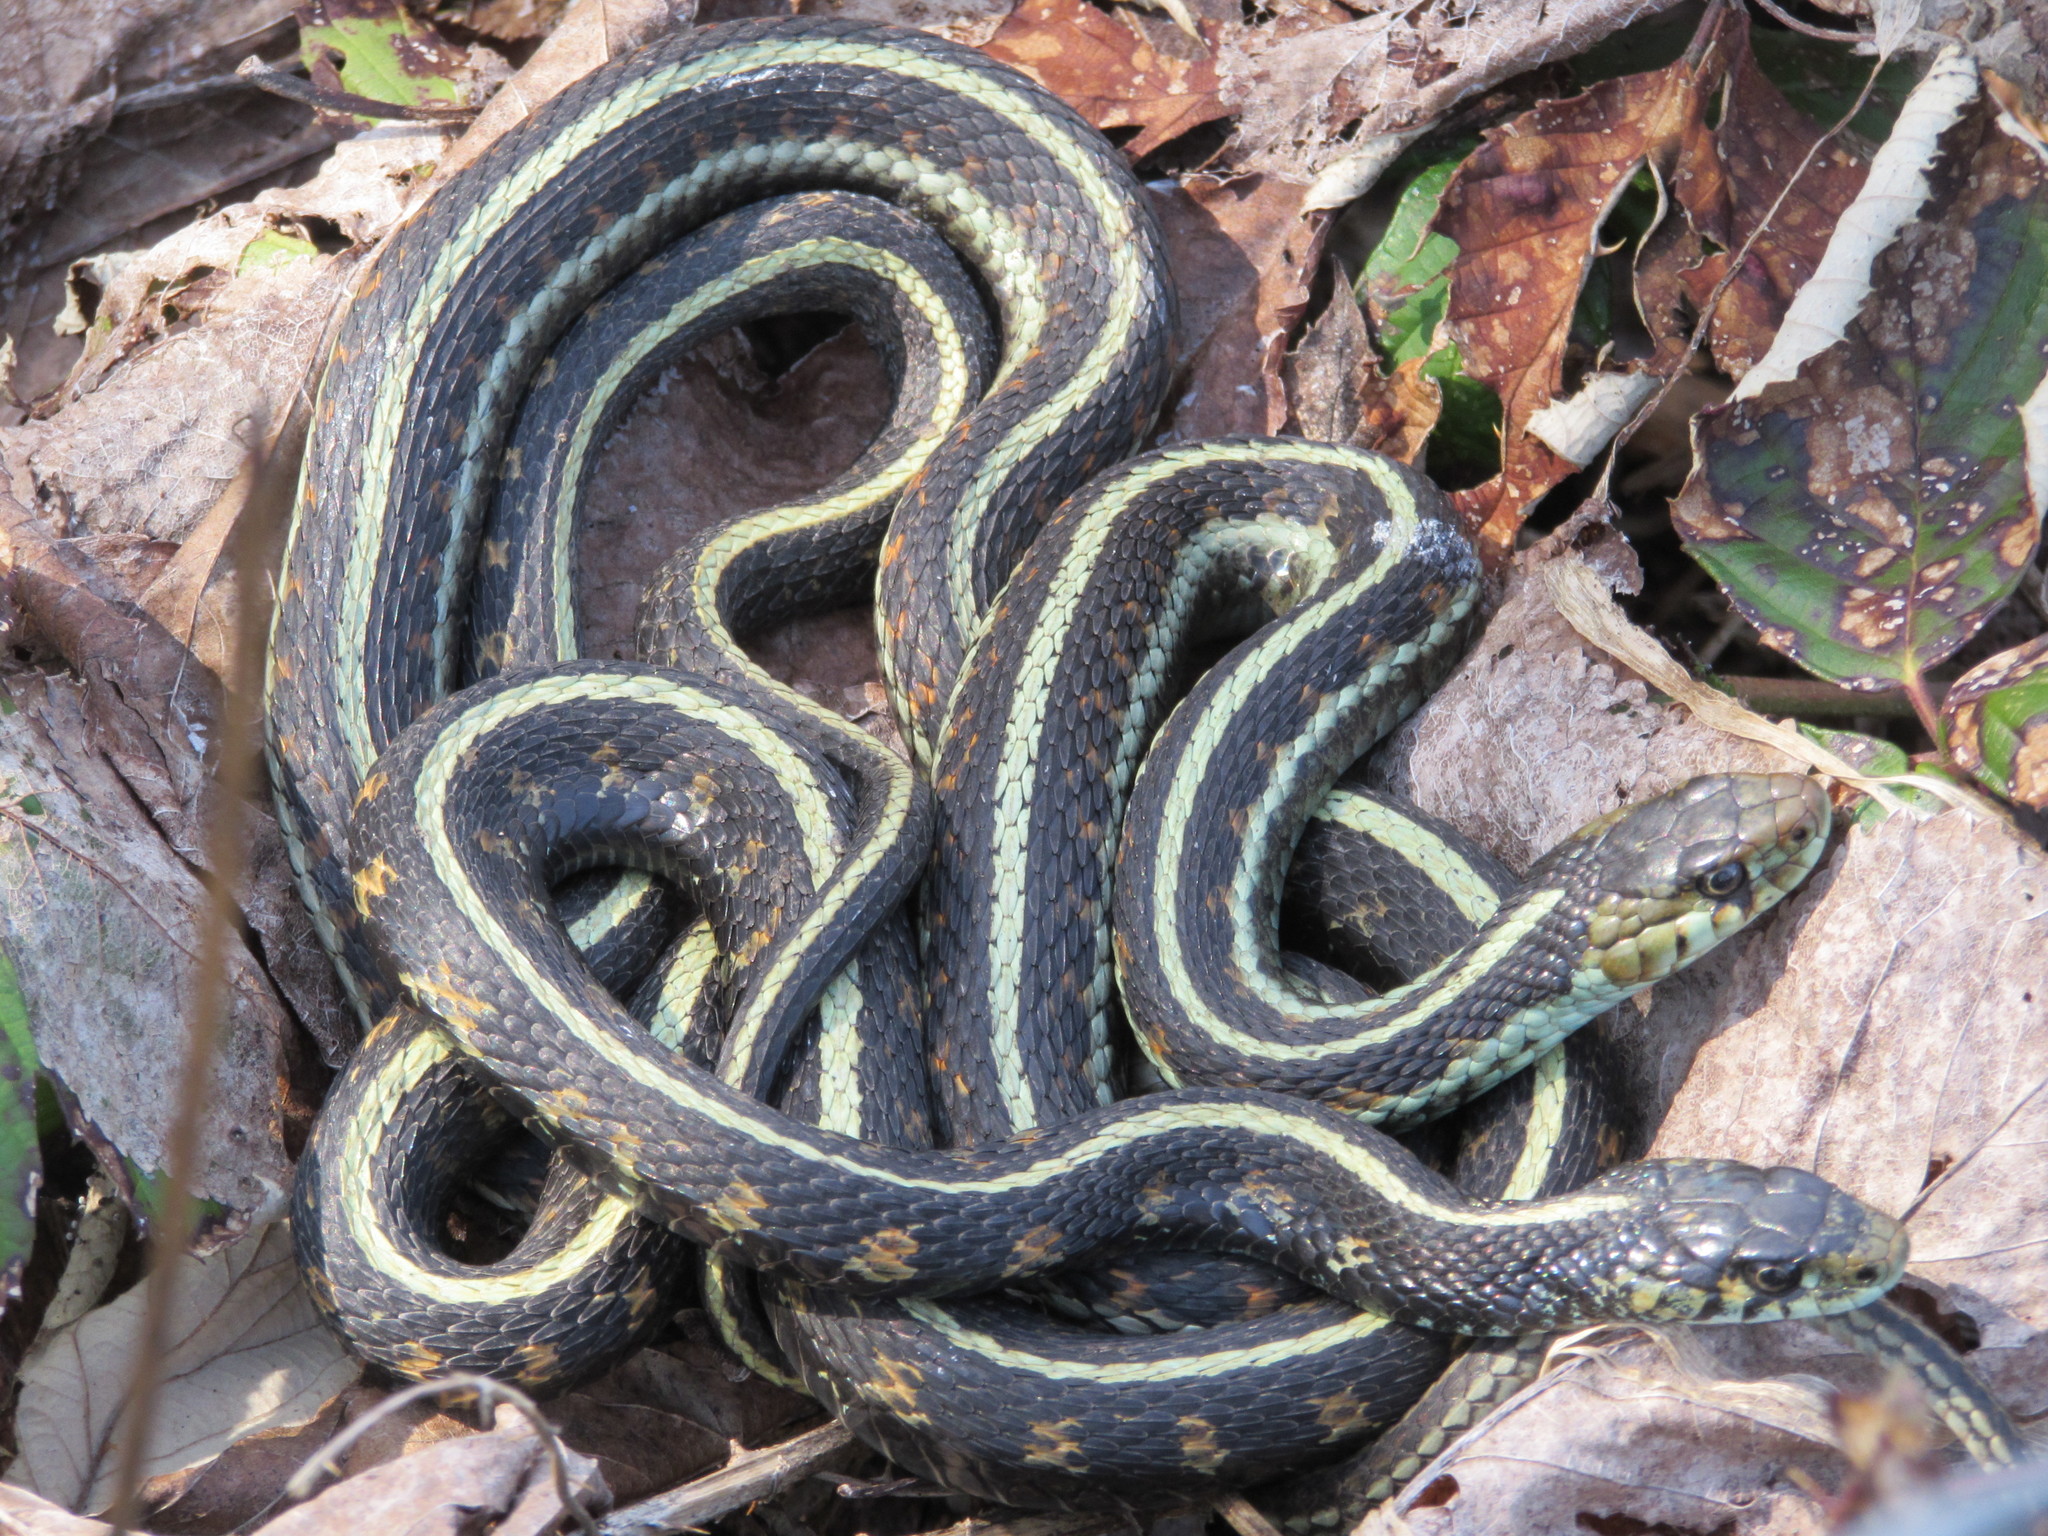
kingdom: Animalia
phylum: Chordata
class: Squamata
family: Colubridae
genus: Thamnophis
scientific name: Thamnophis sirtalis
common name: Common garter snake
